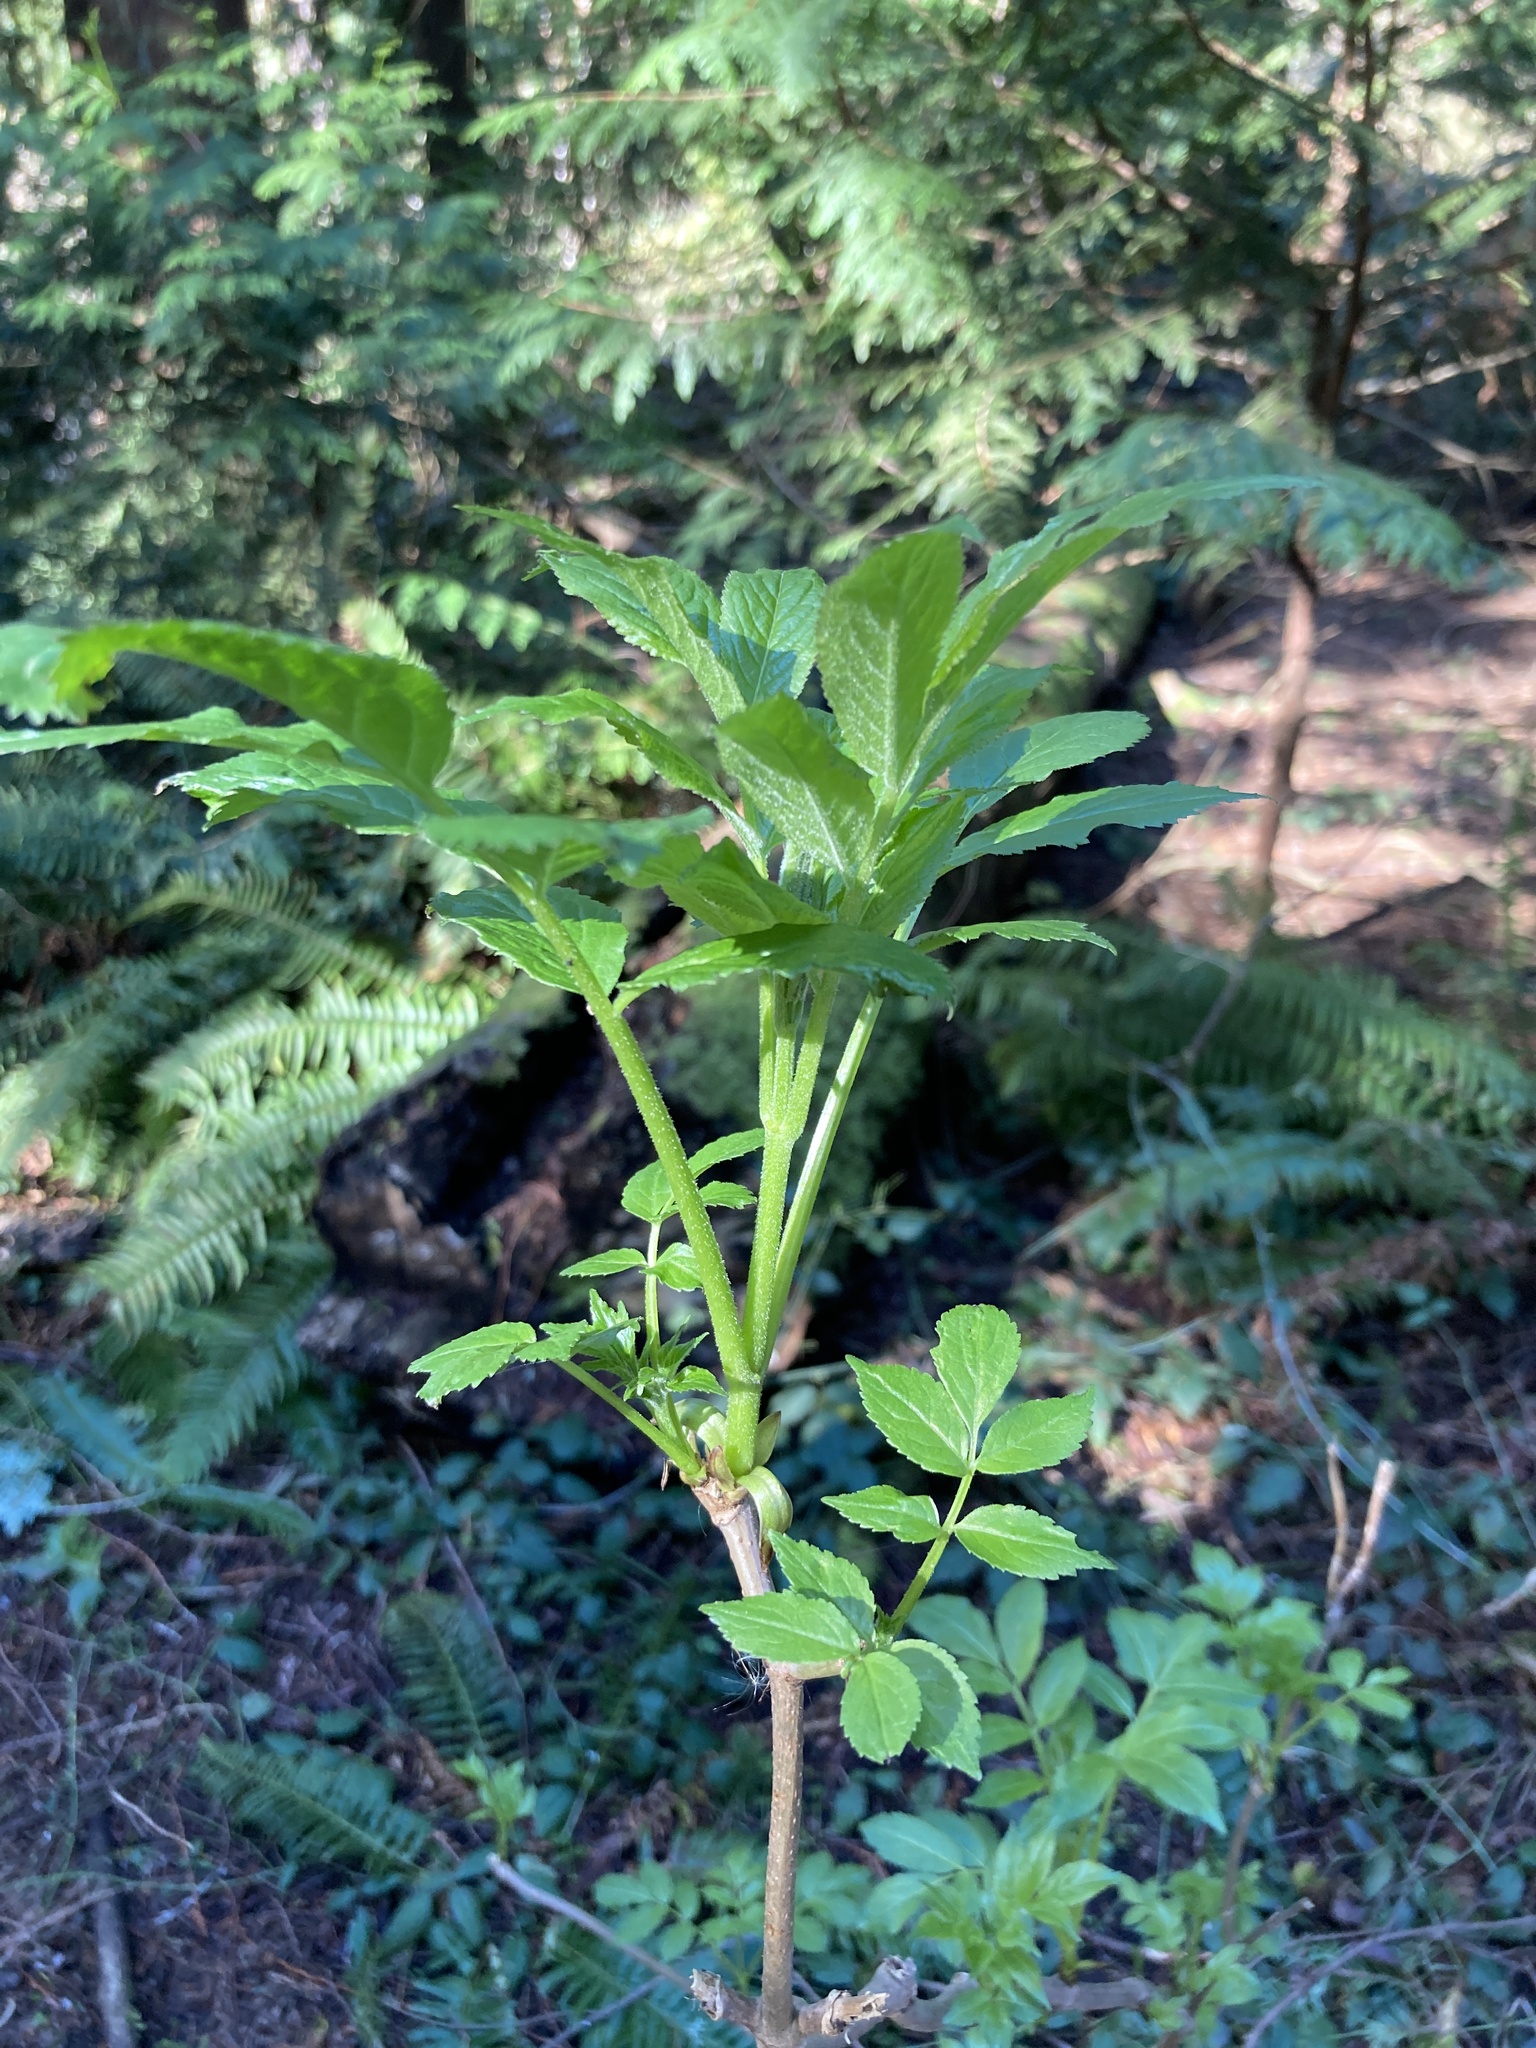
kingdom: Plantae
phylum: Tracheophyta
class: Magnoliopsida
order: Dipsacales
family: Viburnaceae
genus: Sambucus
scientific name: Sambucus racemosa
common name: Red-berried elder
